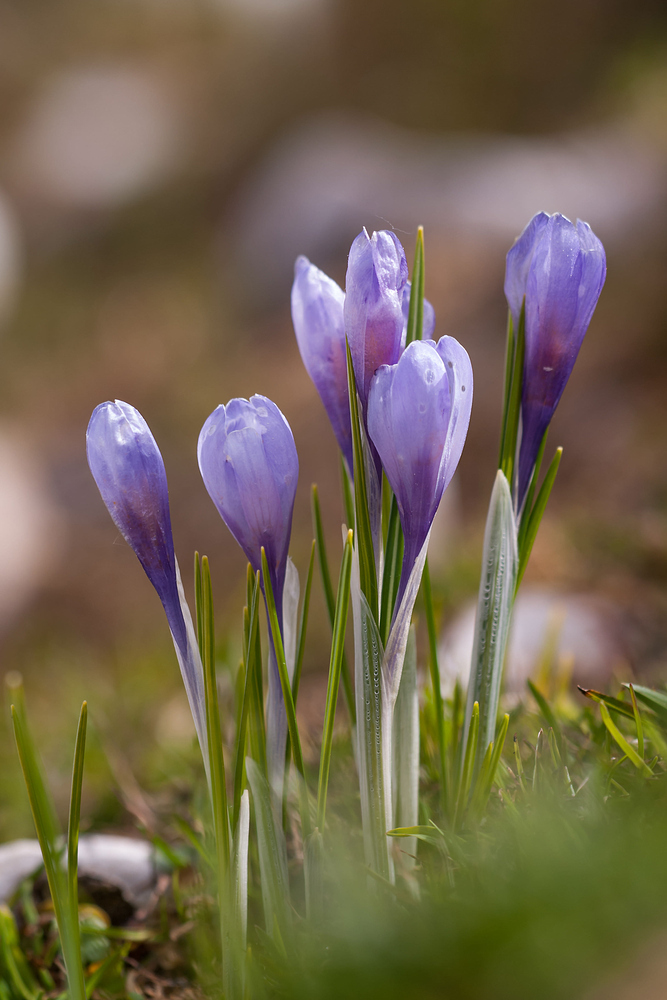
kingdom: Plantae
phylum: Tracheophyta
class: Liliopsida
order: Asparagales
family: Iridaceae
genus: Crocus
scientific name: Crocus vernus
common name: Spring crocus
